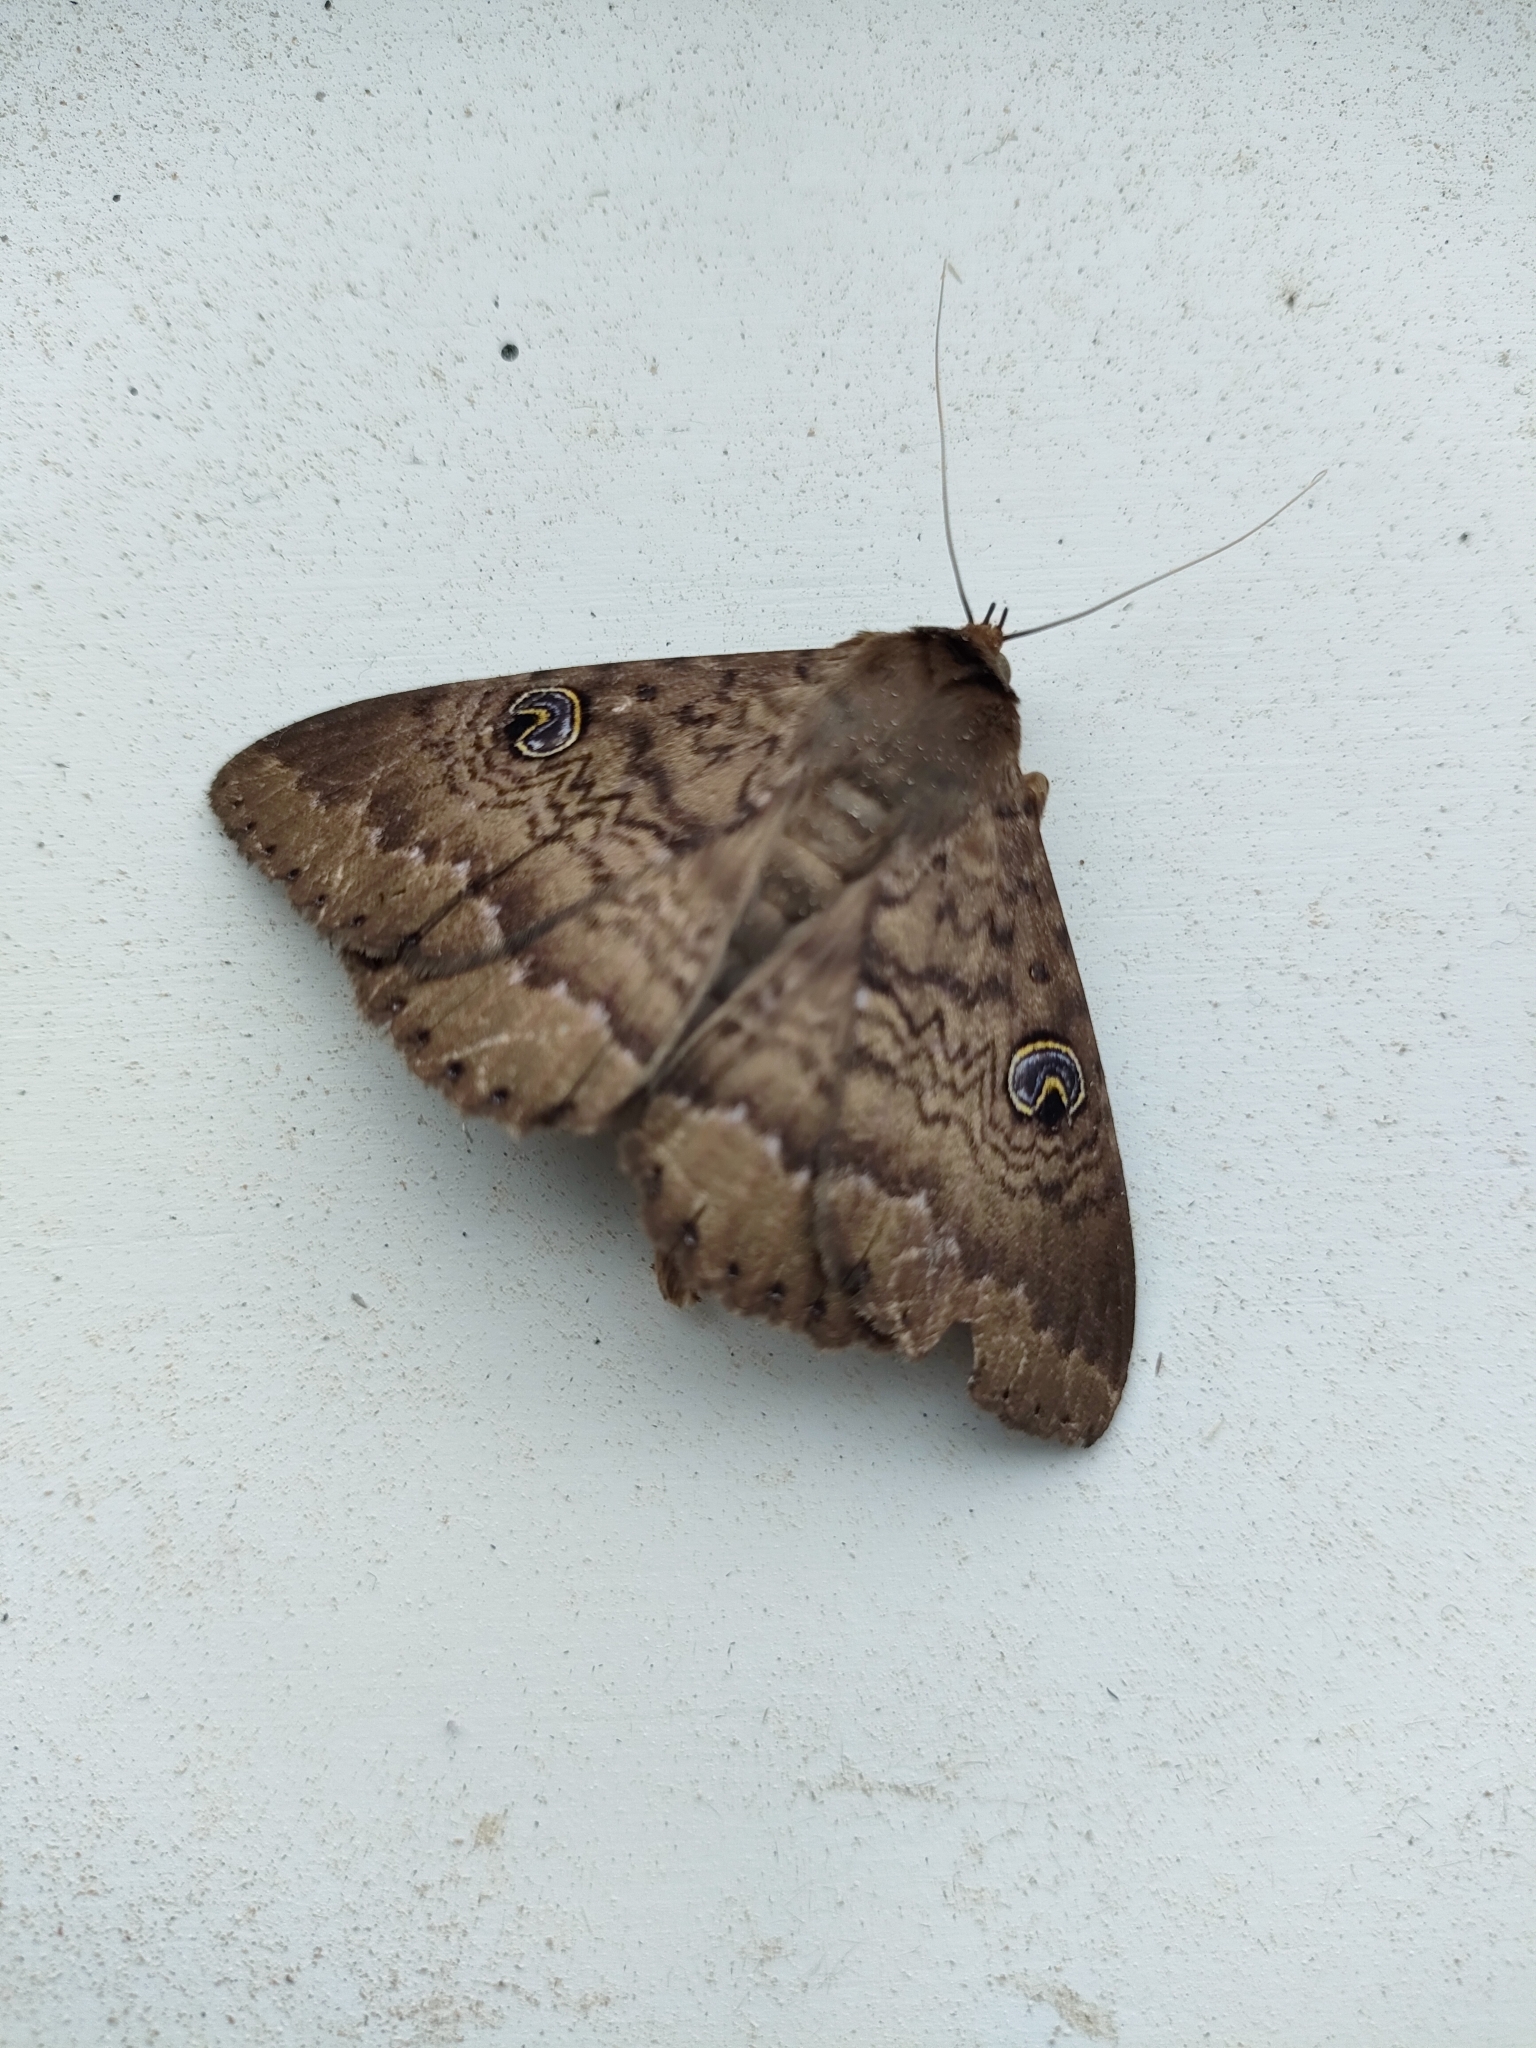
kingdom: Animalia
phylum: Arthropoda
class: Insecta
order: Lepidoptera
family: Erebidae
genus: Dasypodia
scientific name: Dasypodia cymatodes
